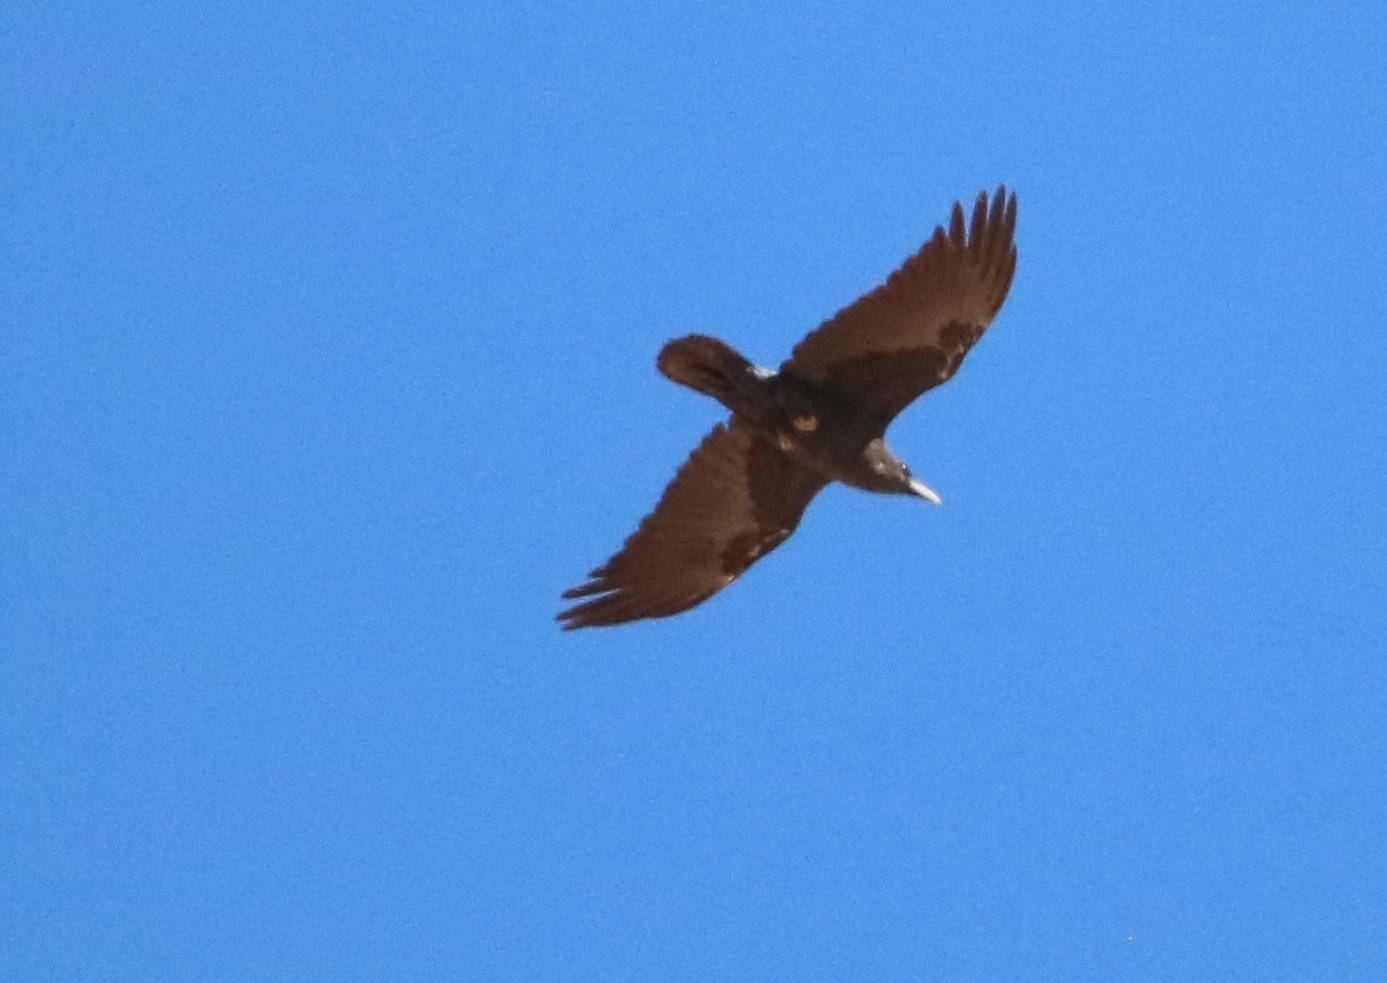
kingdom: Animalia
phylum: Chordata
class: Aves
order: Passeriformes
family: Corvidae
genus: Corvus
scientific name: Corvus ruficollis
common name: Brown-necked raven
